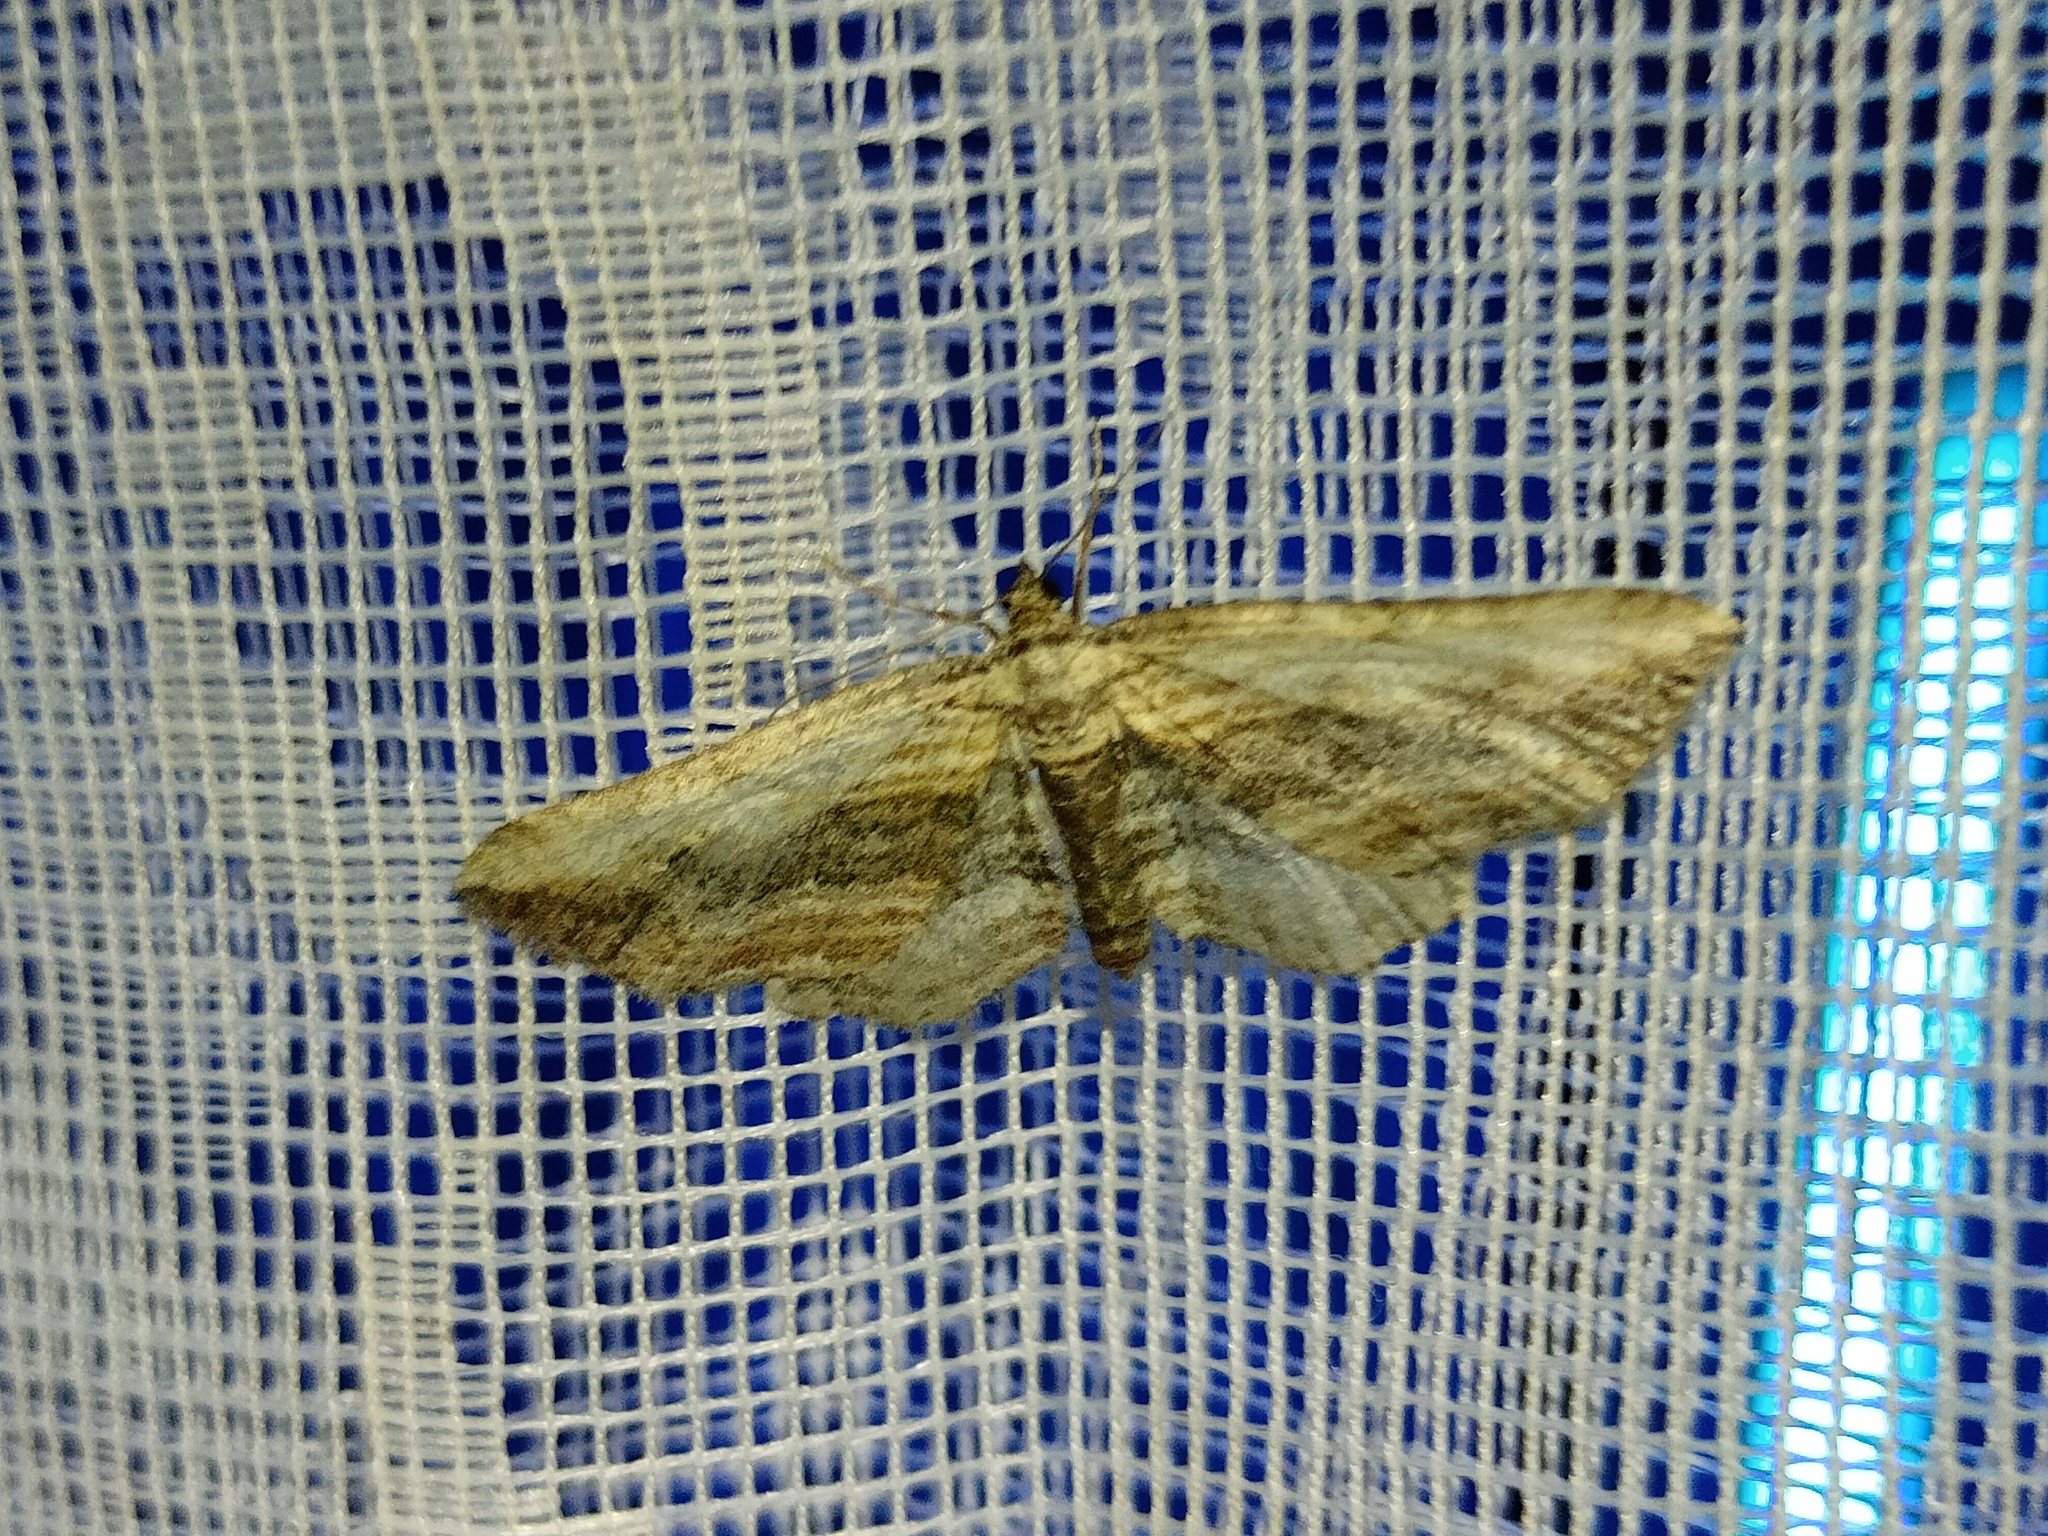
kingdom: Animalia
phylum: Arthropoda
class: Insecta
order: Lepidoptera
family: Geometridae
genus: Horisme
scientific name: Horisme vitalbata
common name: Small waved umber
